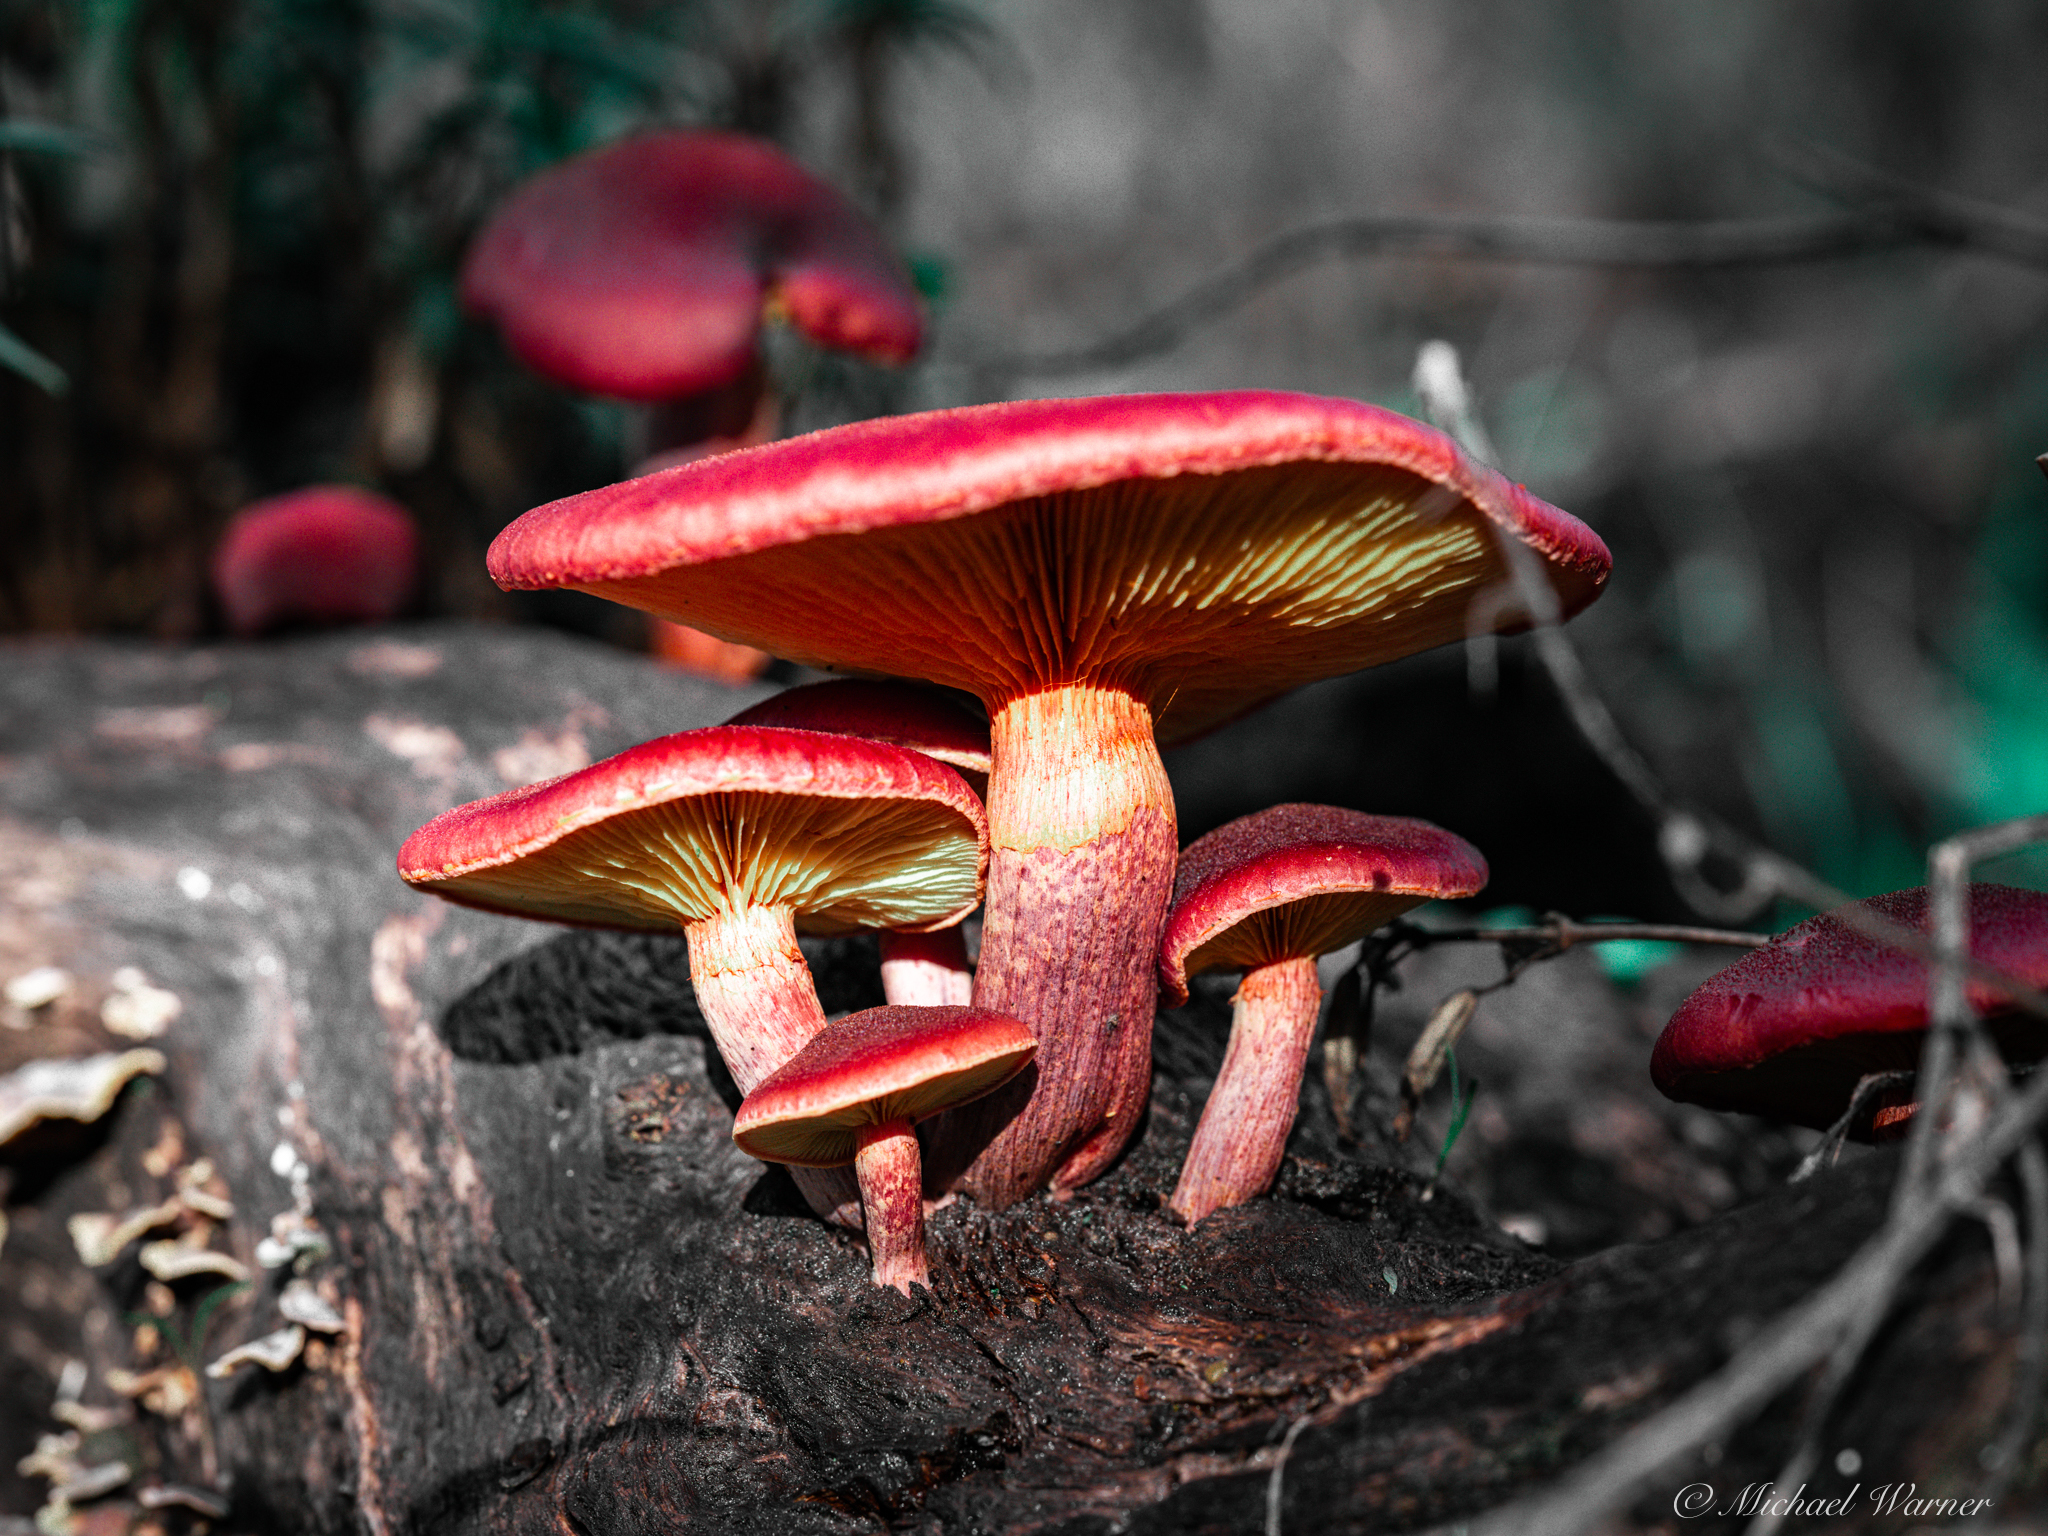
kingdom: Fungi
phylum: Basidiomycota
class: Agaricomycetes
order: Agaricales
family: Hymenogastraceae
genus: Gymnopilus
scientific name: Gymnopilus luteofolius
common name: Yellow-gilled gymnopilus
